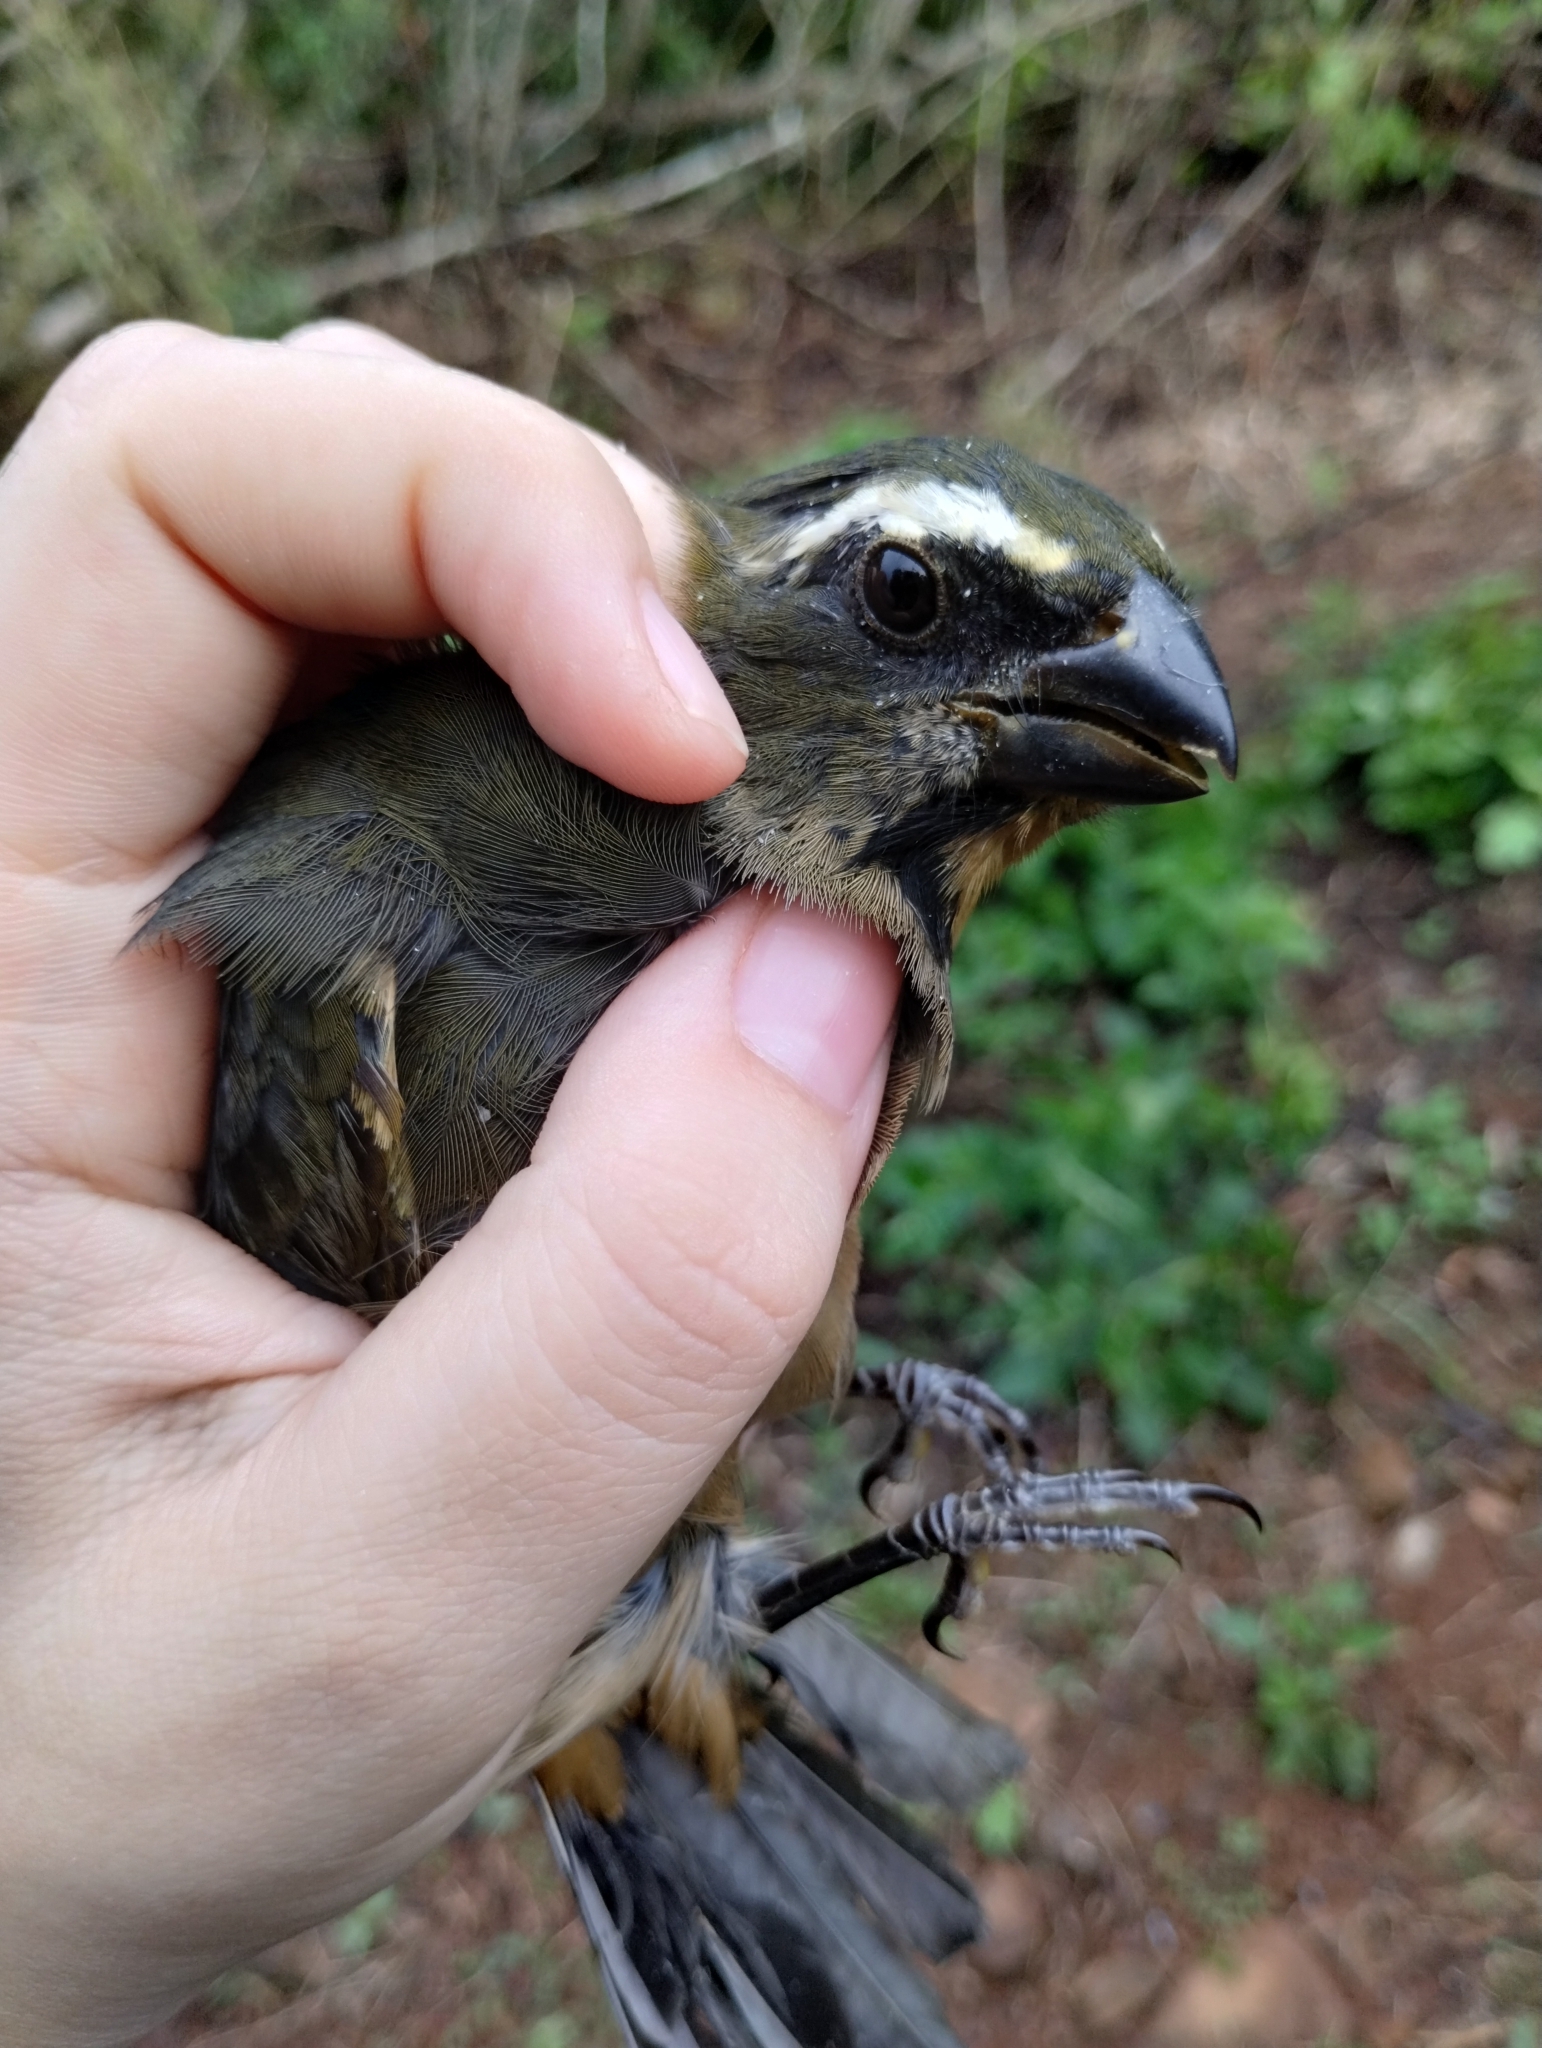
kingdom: Animalia
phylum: Chordata
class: Aves
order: Passeriformes
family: Thraupidae
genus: Saltator
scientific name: Saltator maxillosus
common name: Thick-billed saltator
